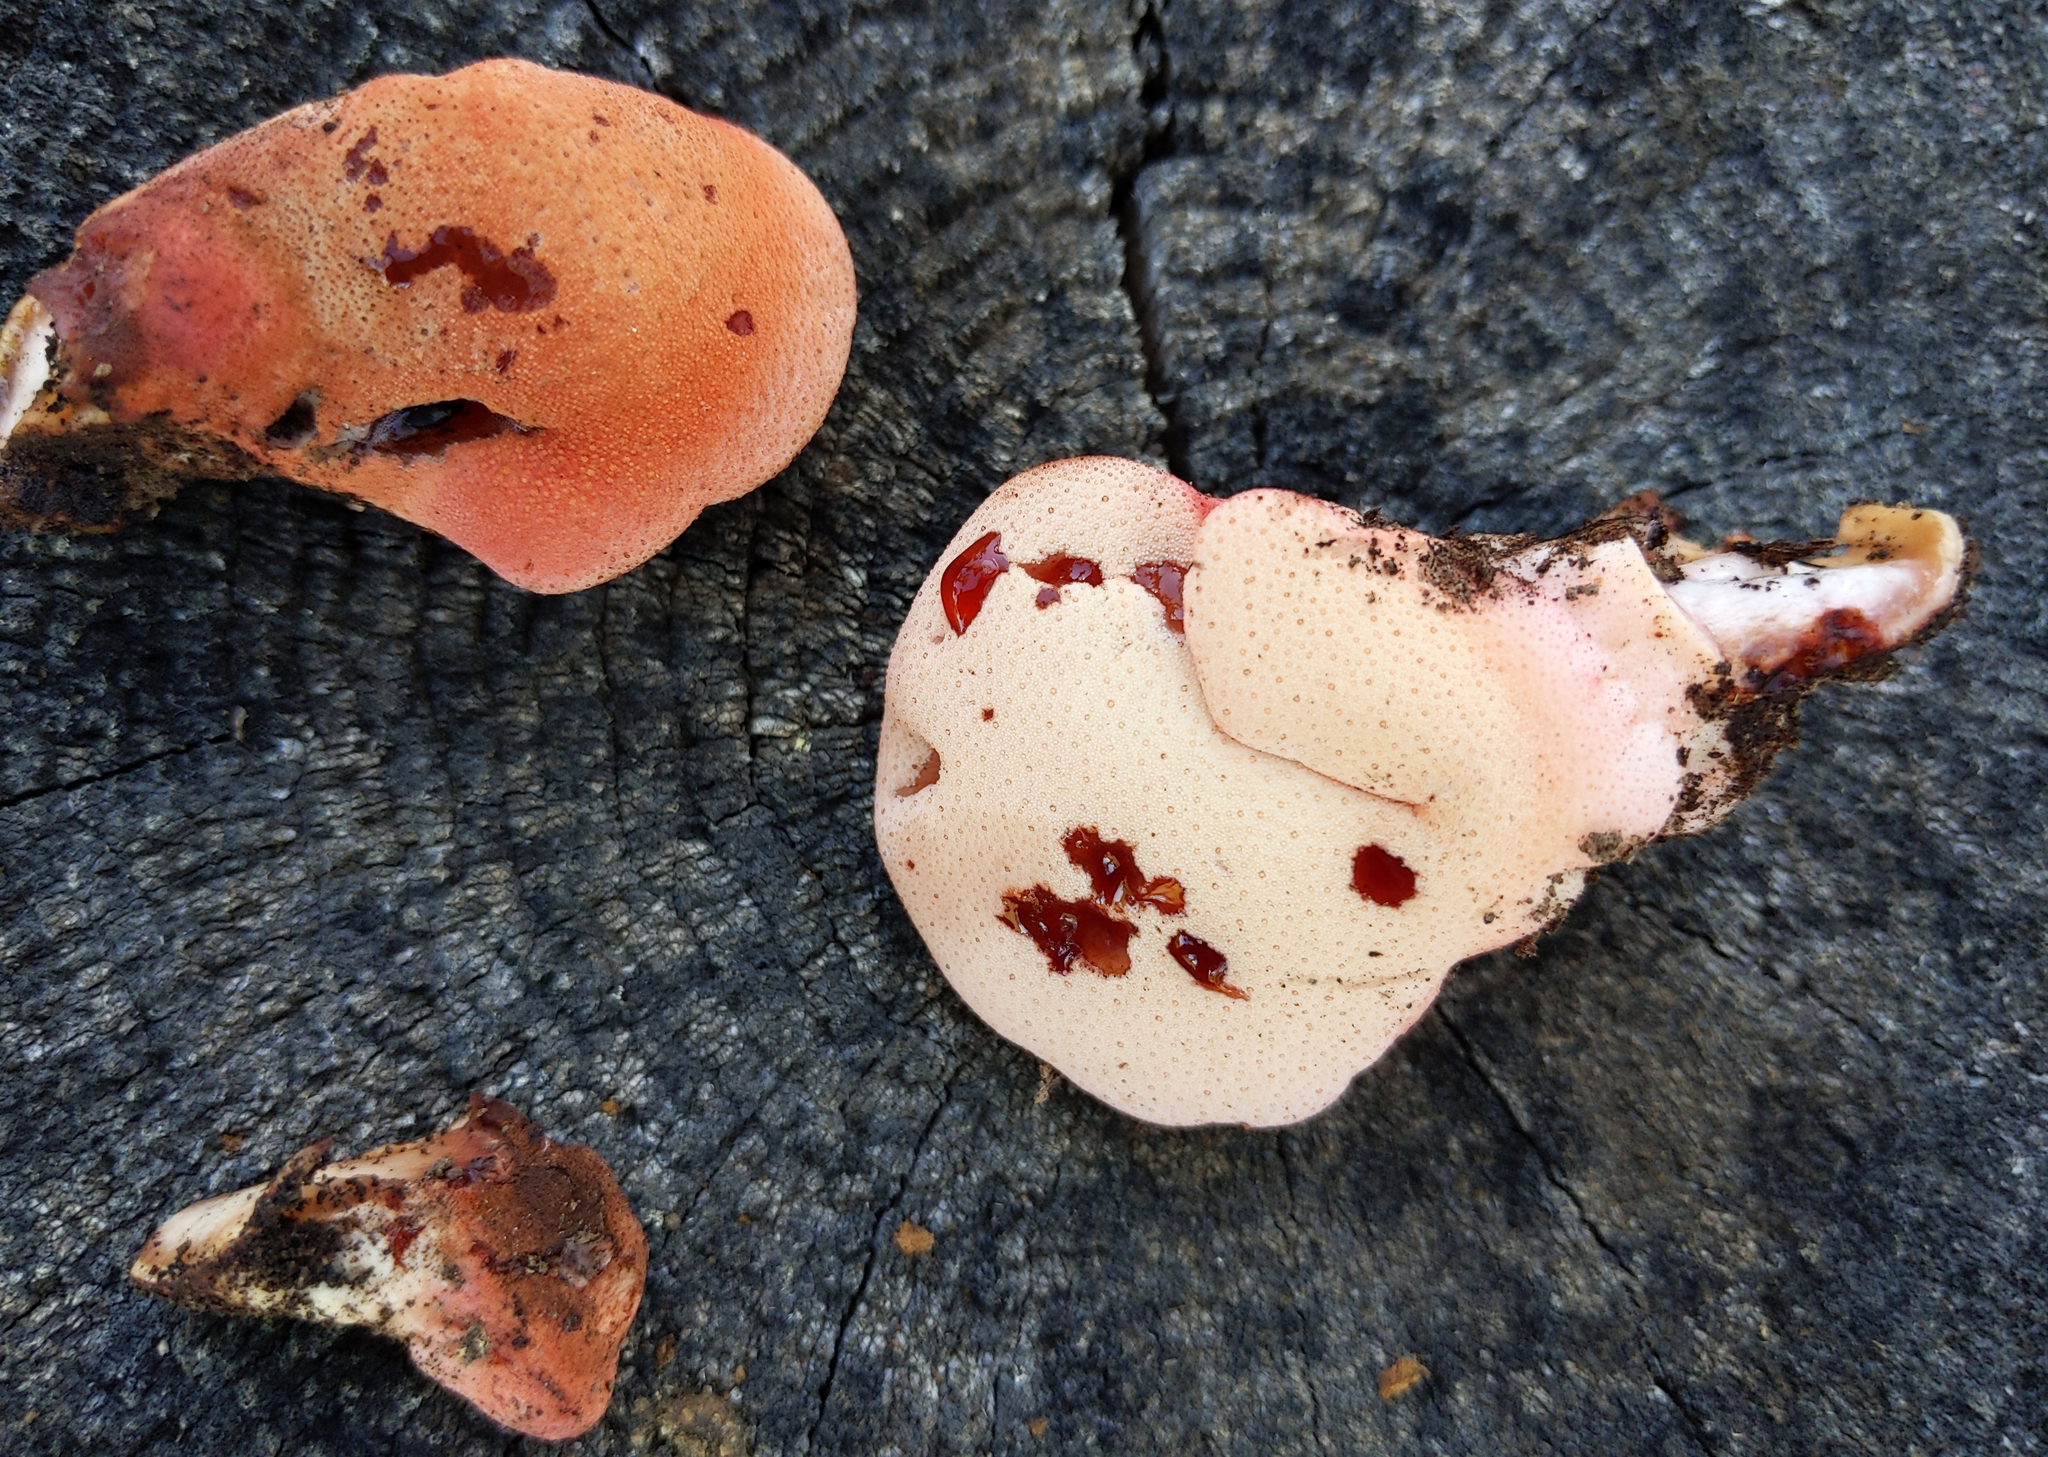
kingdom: Fungi
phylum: Basidiomycota
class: Agaricomycetes
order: Agaricales
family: Fistulinaceae
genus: Fistulina
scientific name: Fistulina hepatica
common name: Beef-steak fungus
